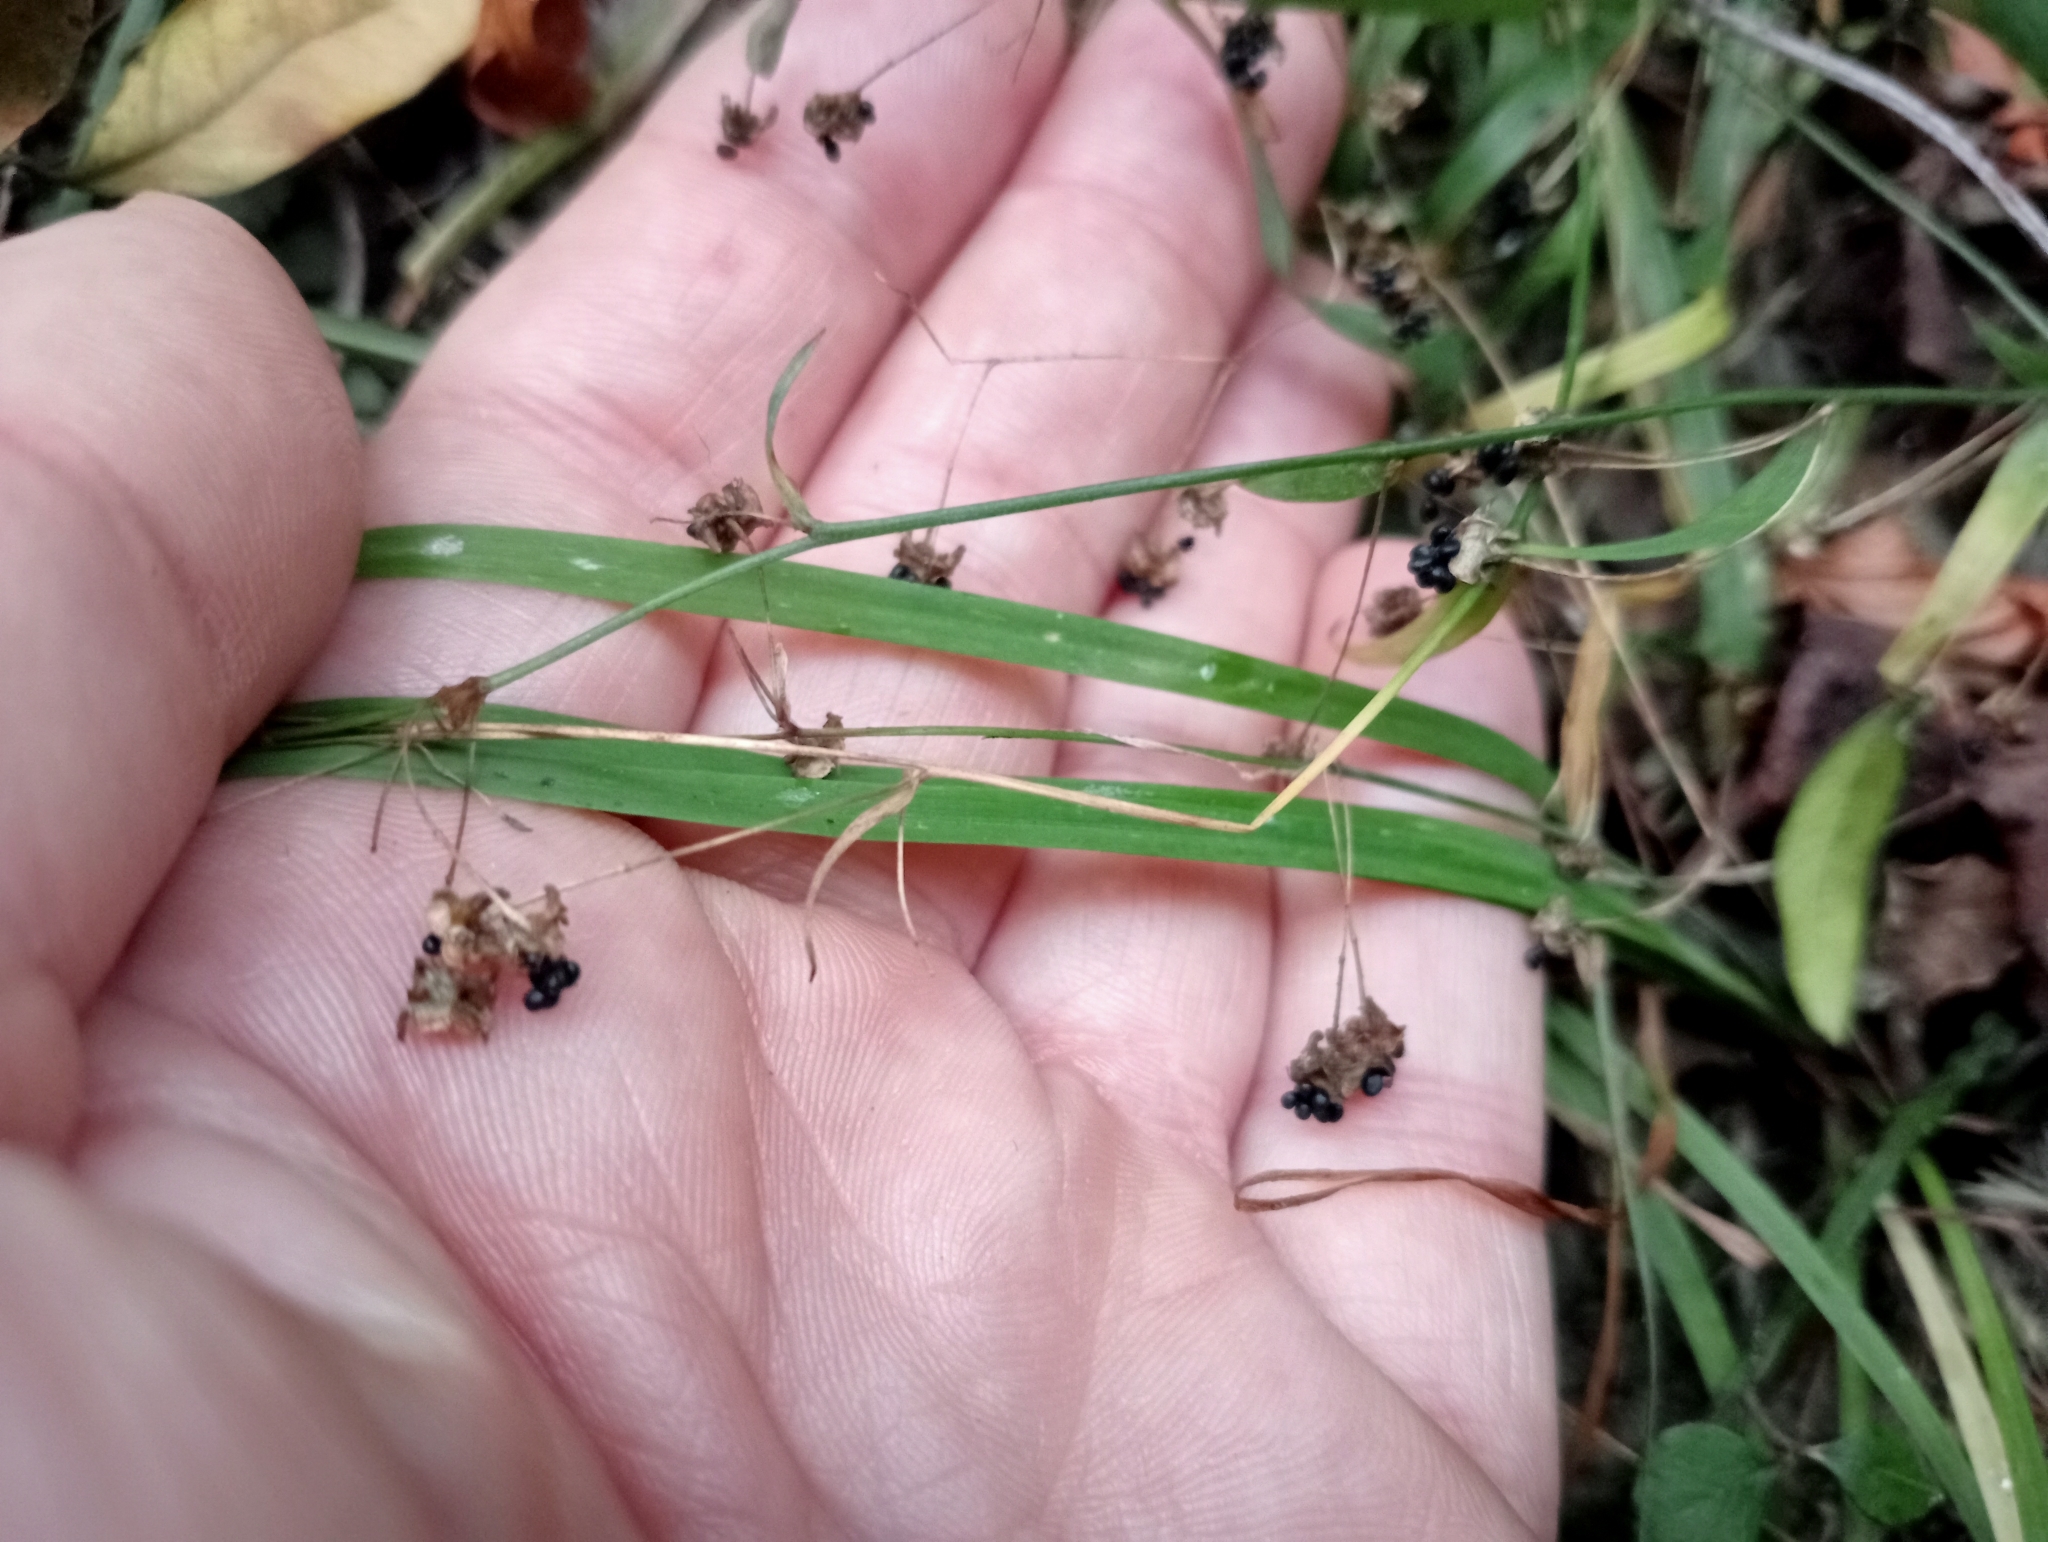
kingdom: Plantae
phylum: Tracheophyta
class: Liliopsida
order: Asparagales
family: Asparagaceae
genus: Arthropodium
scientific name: Arthropodium candidum
